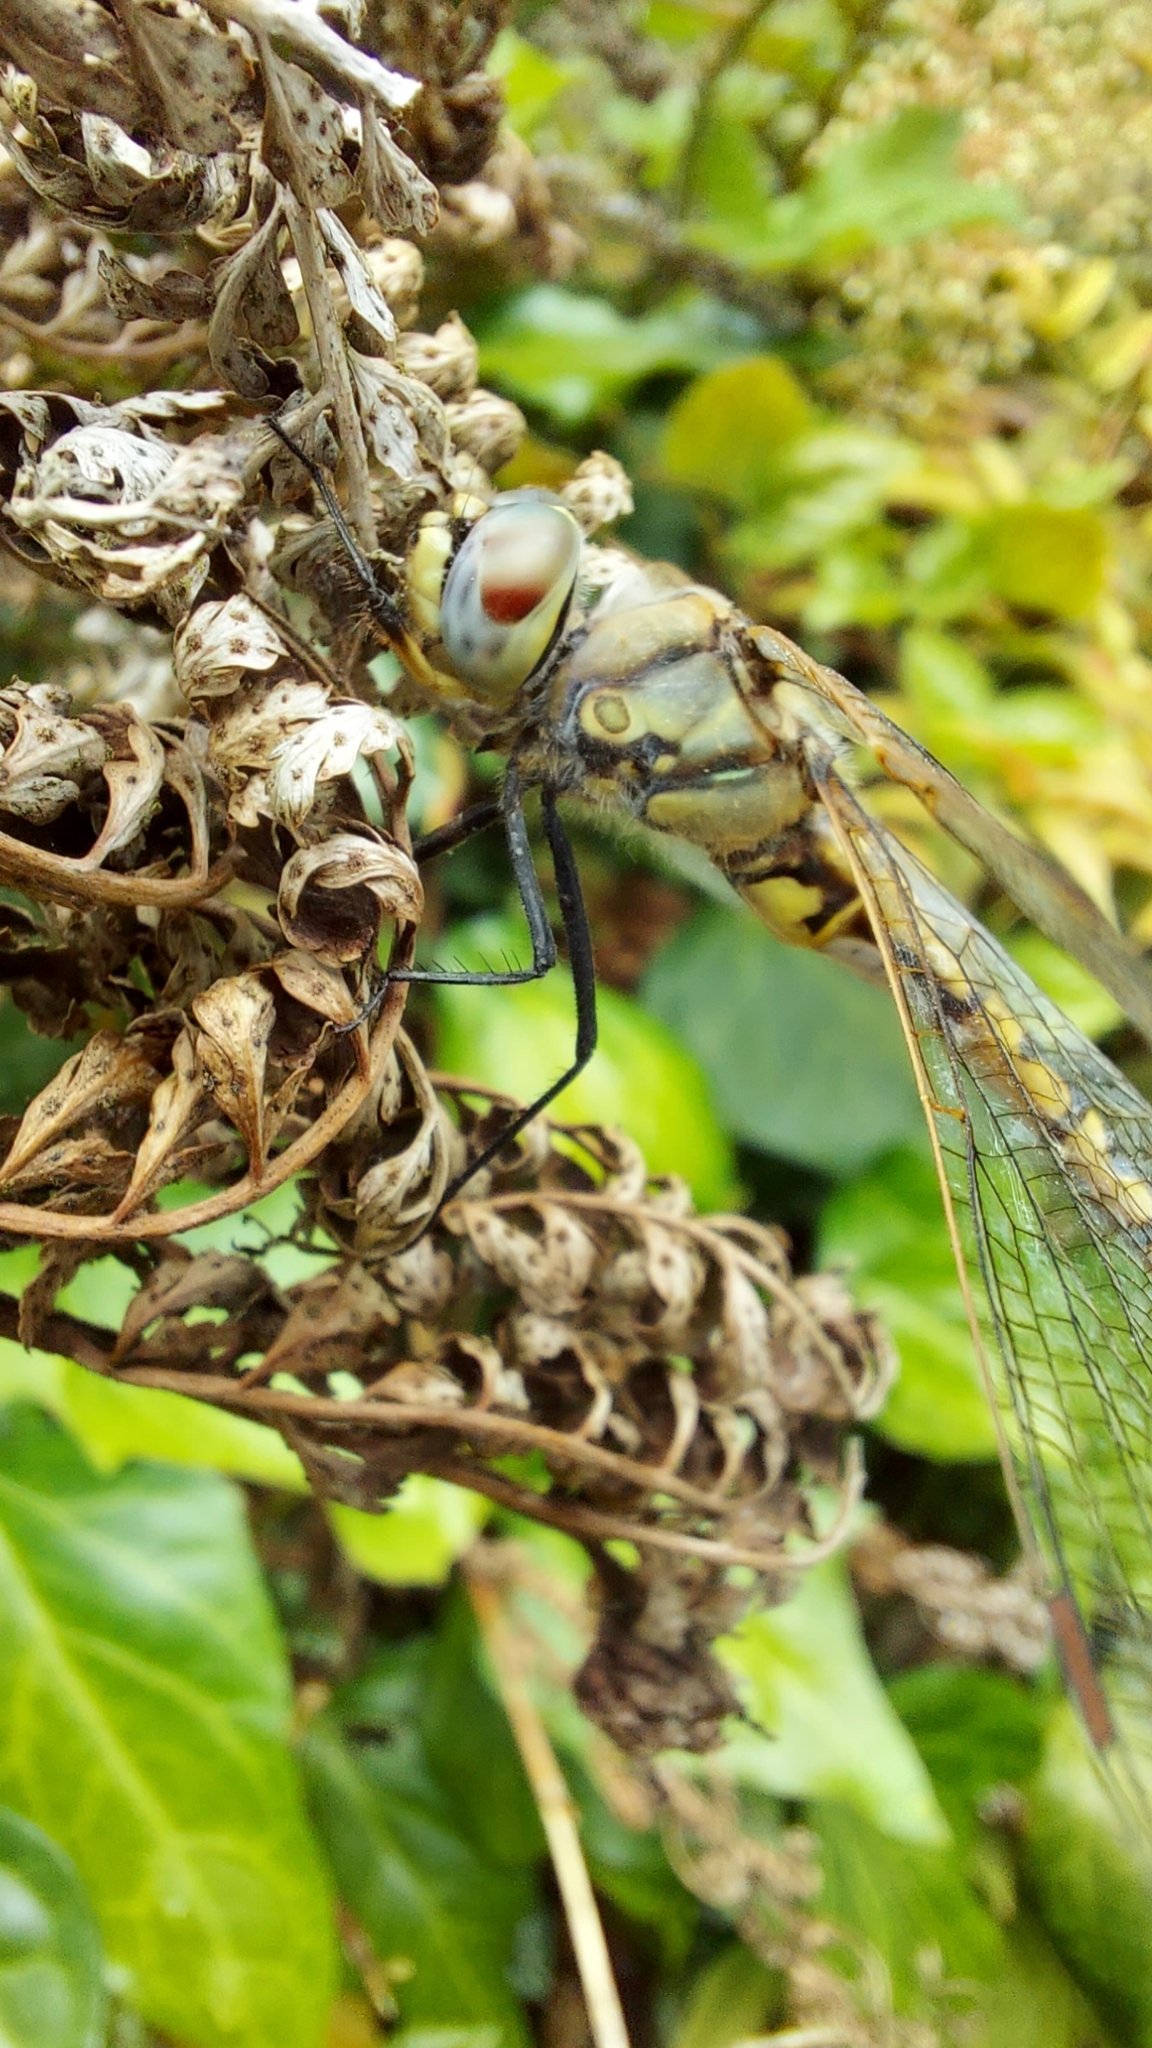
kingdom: Animalia
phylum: Arthropoda
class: Insecta
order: Odonata
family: Corduliidae
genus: Hemicordulia
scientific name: Hemicordulia tau
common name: Tau emerald
